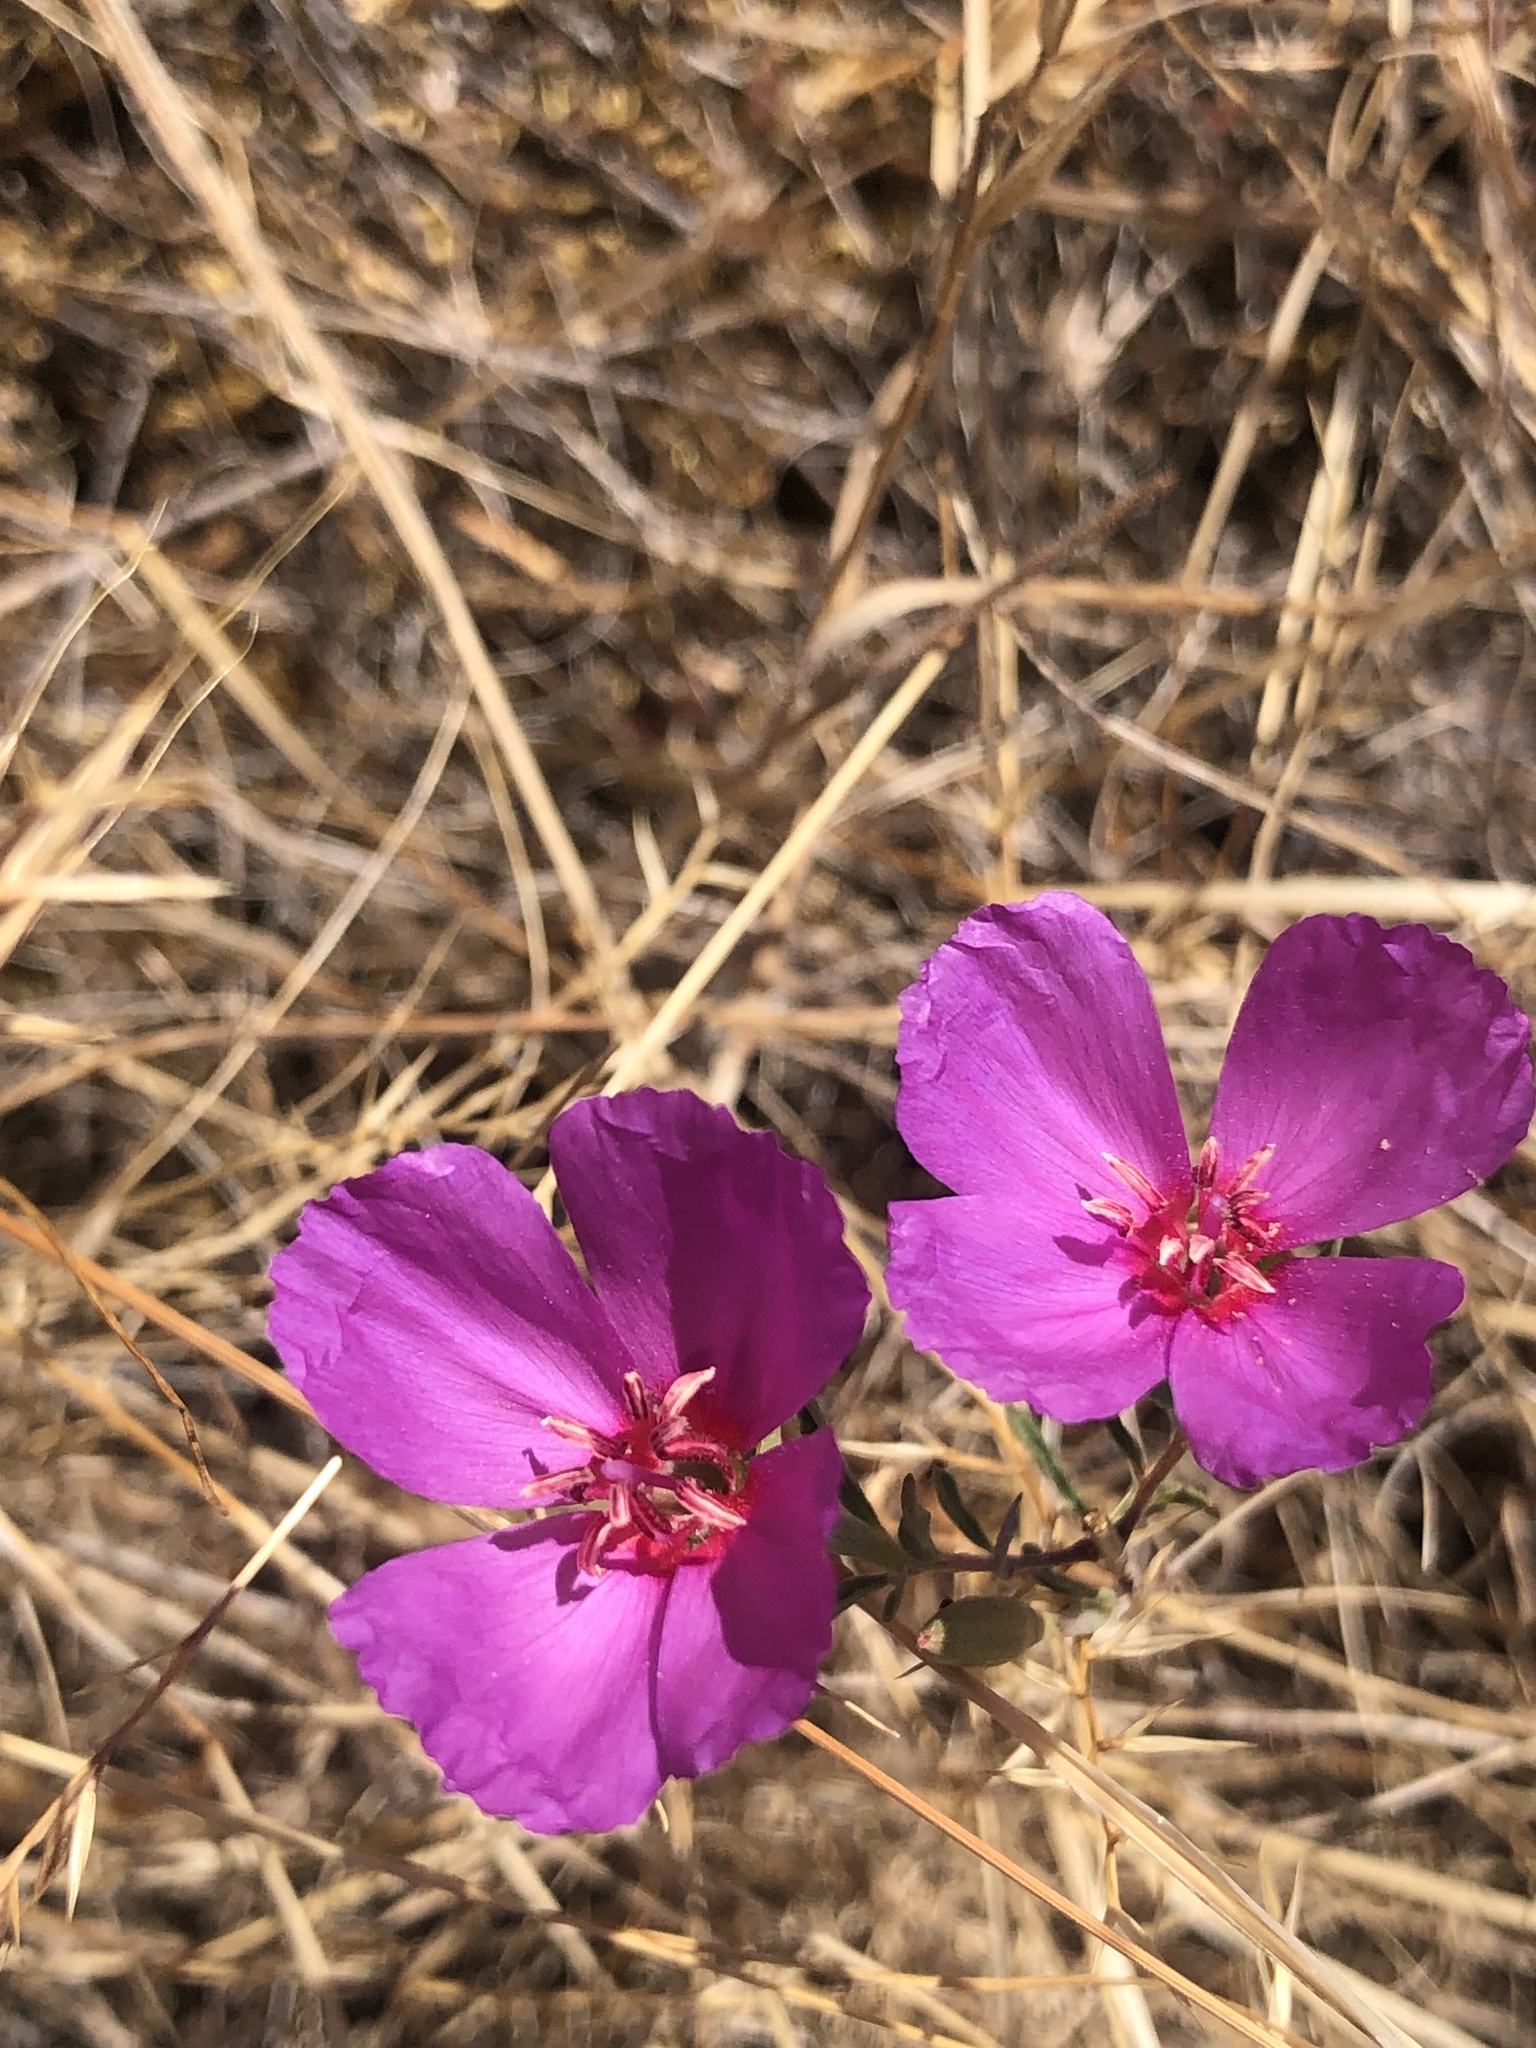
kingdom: Plantae
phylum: Tracheophyta
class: Magnoliopsida
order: Myrtales
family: Onagraceae
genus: Clarkia
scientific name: Clarkia rubicunda
